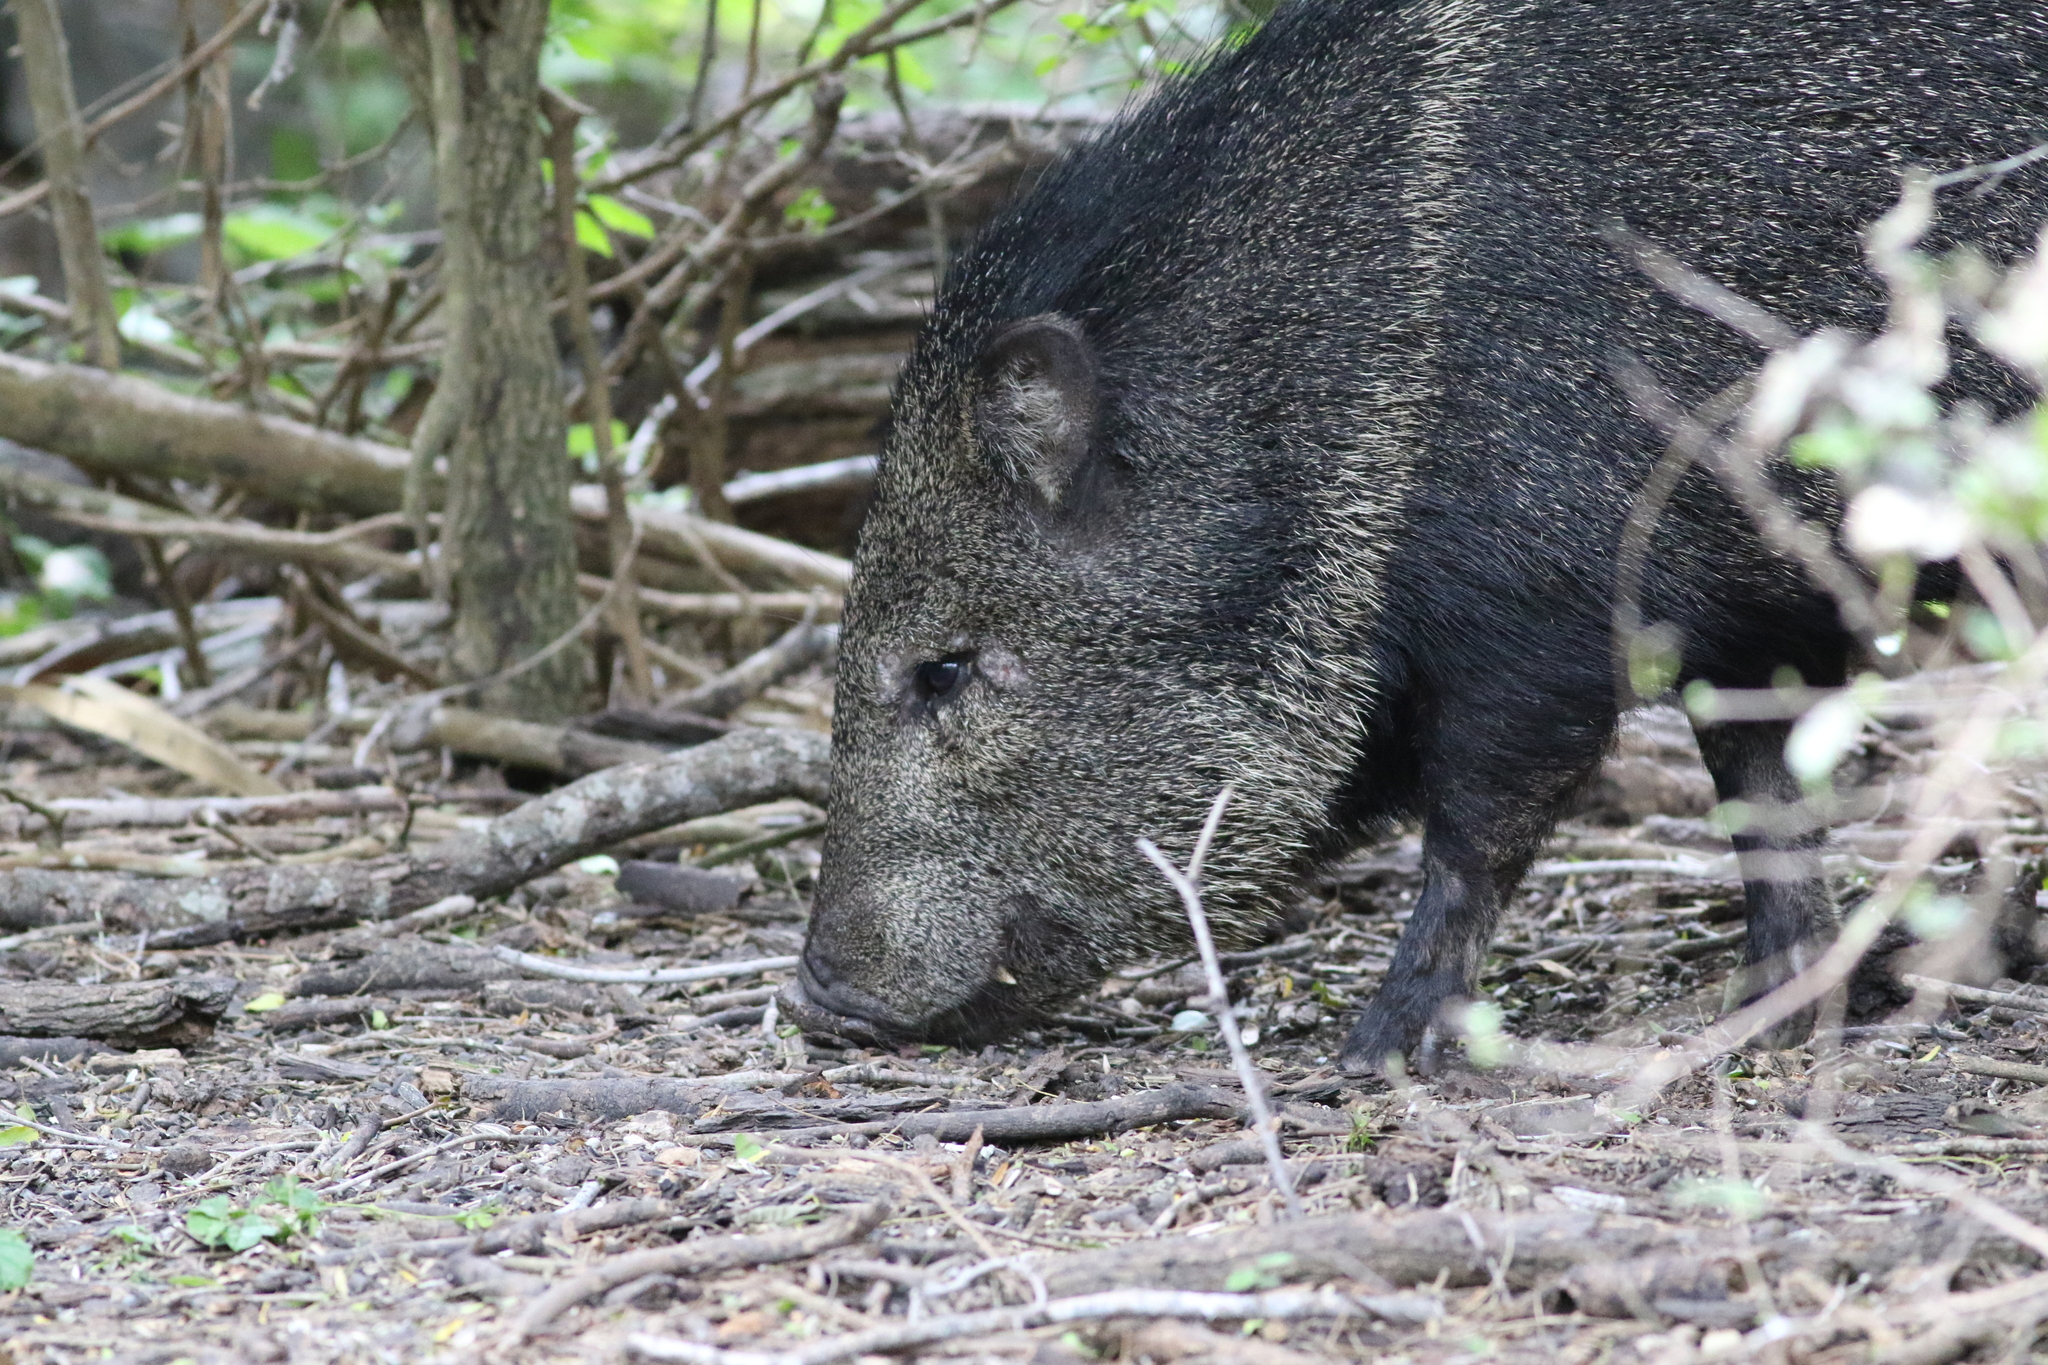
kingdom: Animalia
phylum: Chordata
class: Mammalia
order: Artiodactyla
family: Tayassuidae
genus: Pecari
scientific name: Pecari tajacu
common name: Collared peccary
